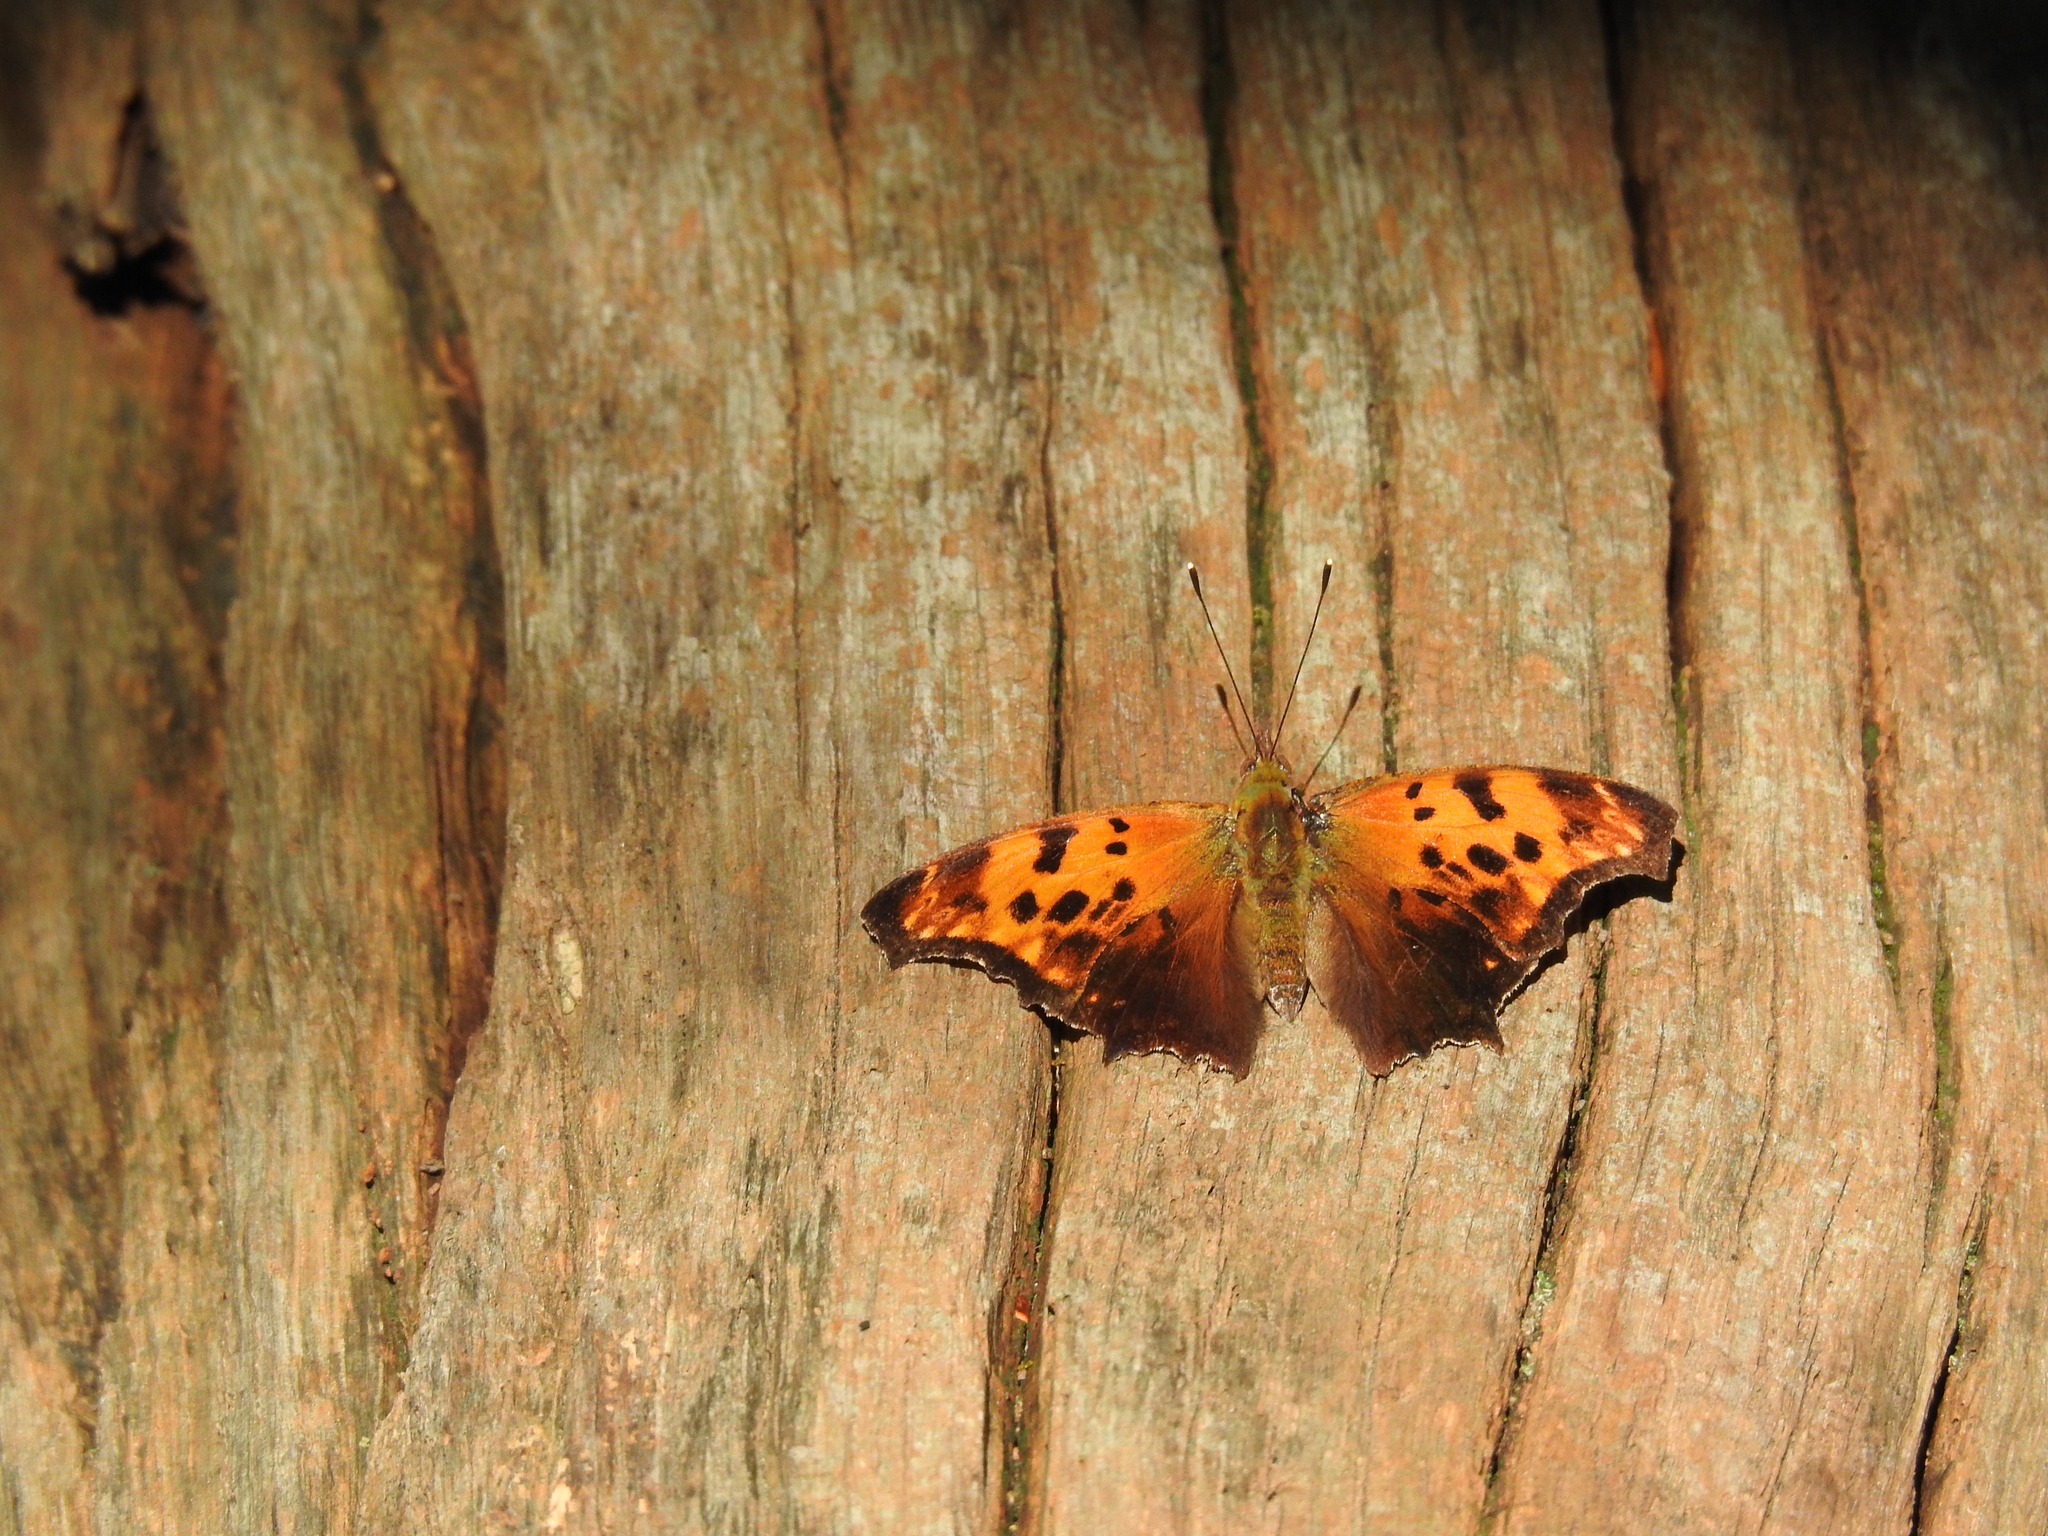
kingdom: Animalia
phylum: Arthropoda
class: Insecta
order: Lepidoptera
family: Nymphalidae
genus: Polygonia
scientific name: Polygonia comma
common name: Eastern comma
